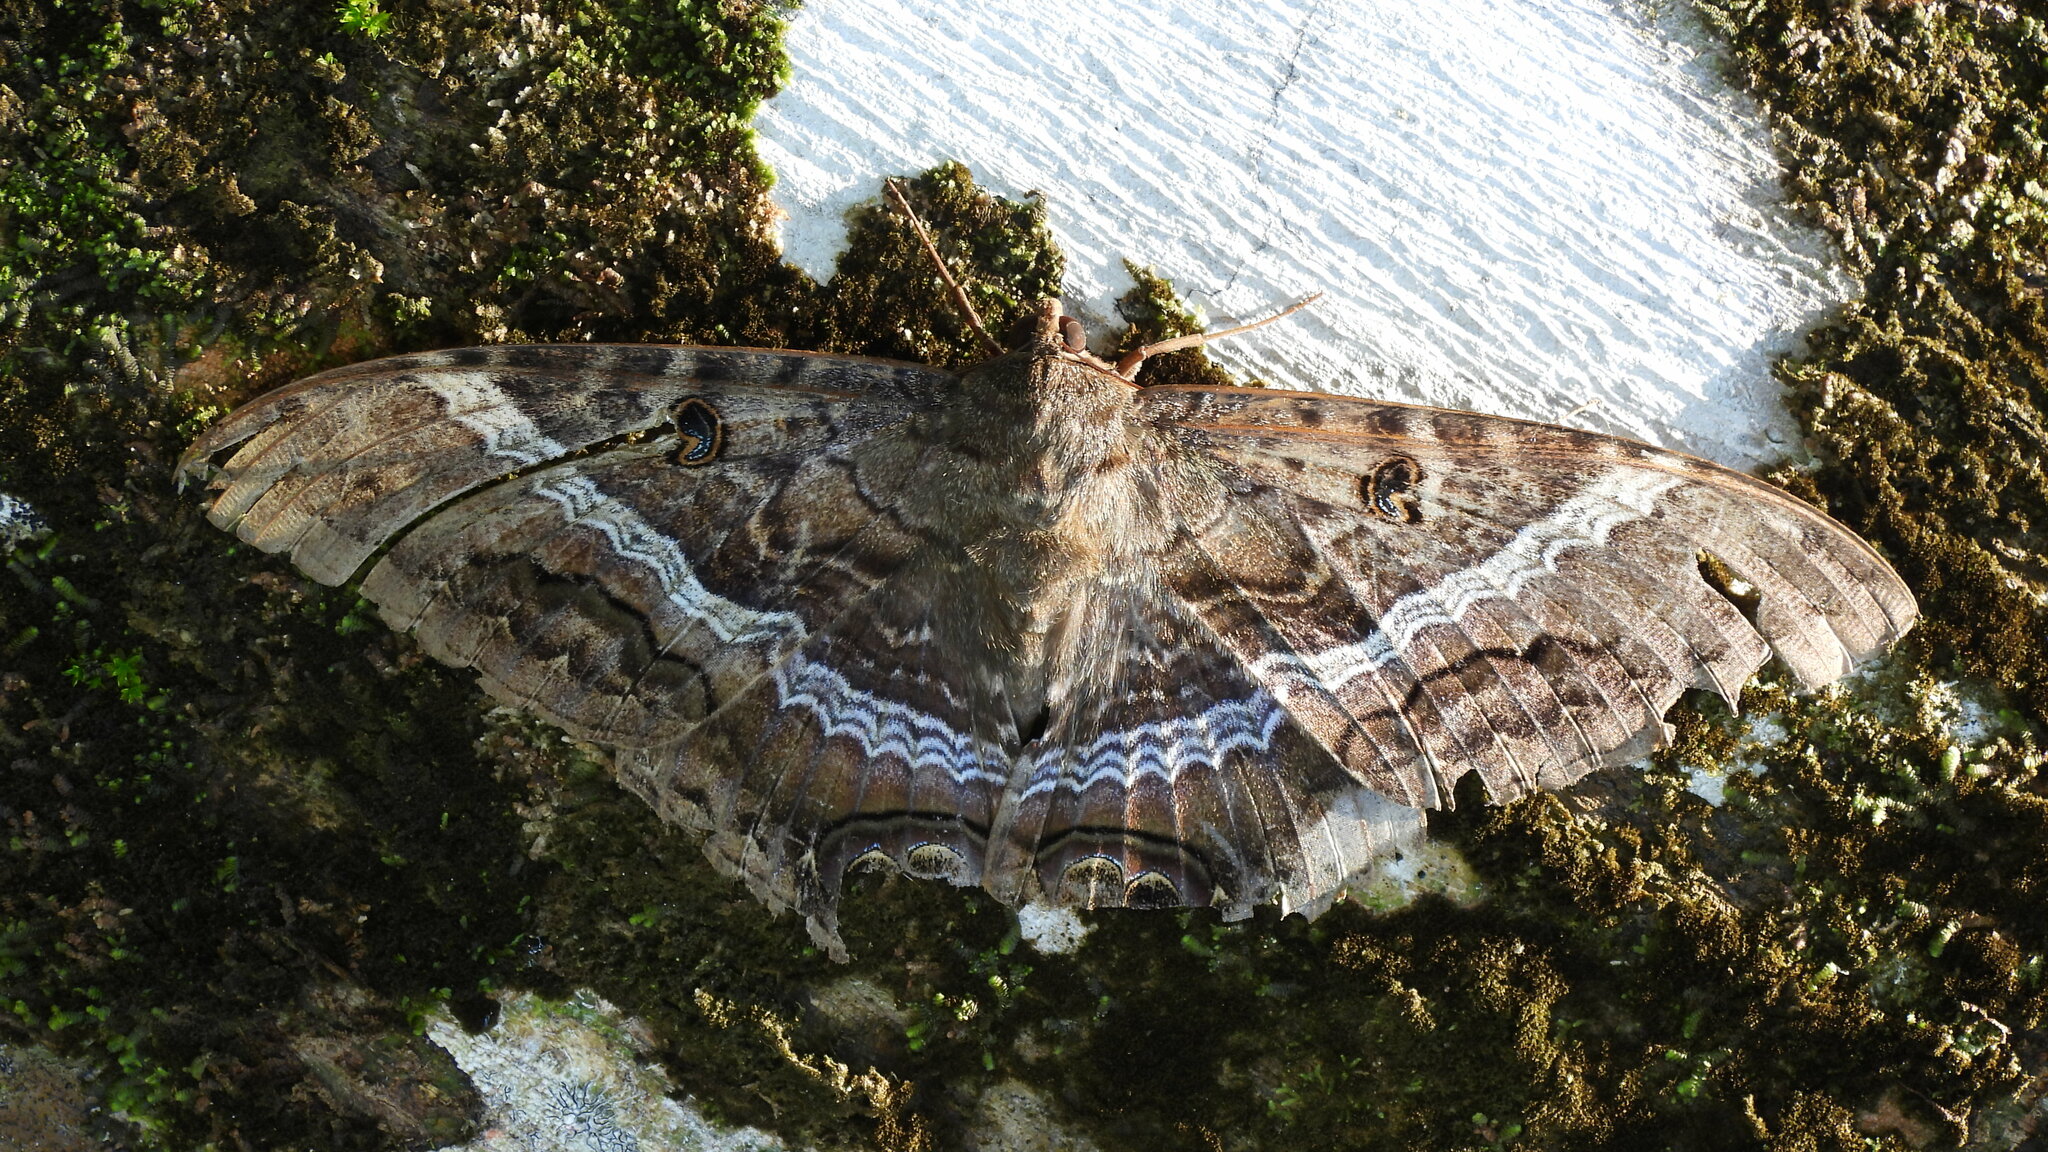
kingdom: Animalia
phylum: Arthropoda
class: Insecta
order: Lepidoptera
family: Erebidae
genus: Ascalapha
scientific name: Ascalapha odorata
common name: Black witch
